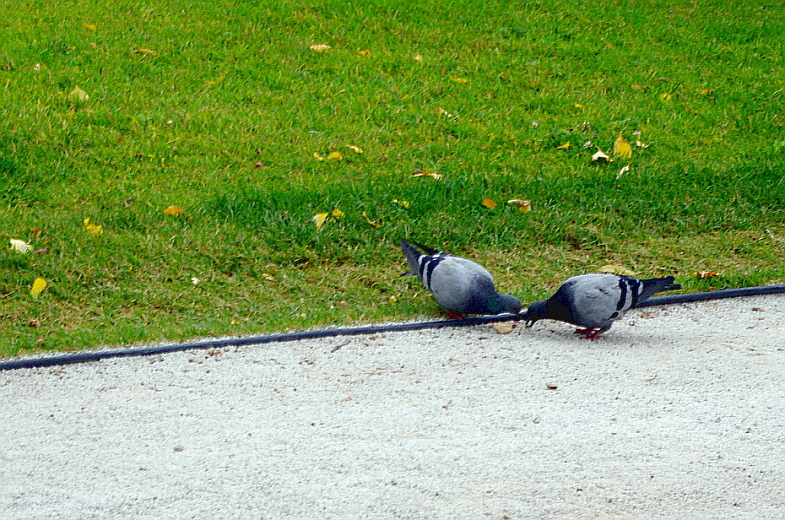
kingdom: Animalia
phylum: Chordata
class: Aves
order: Columbiformes
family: Columbidae
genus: Columba
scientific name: Columba livia
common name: Rock pigeon
